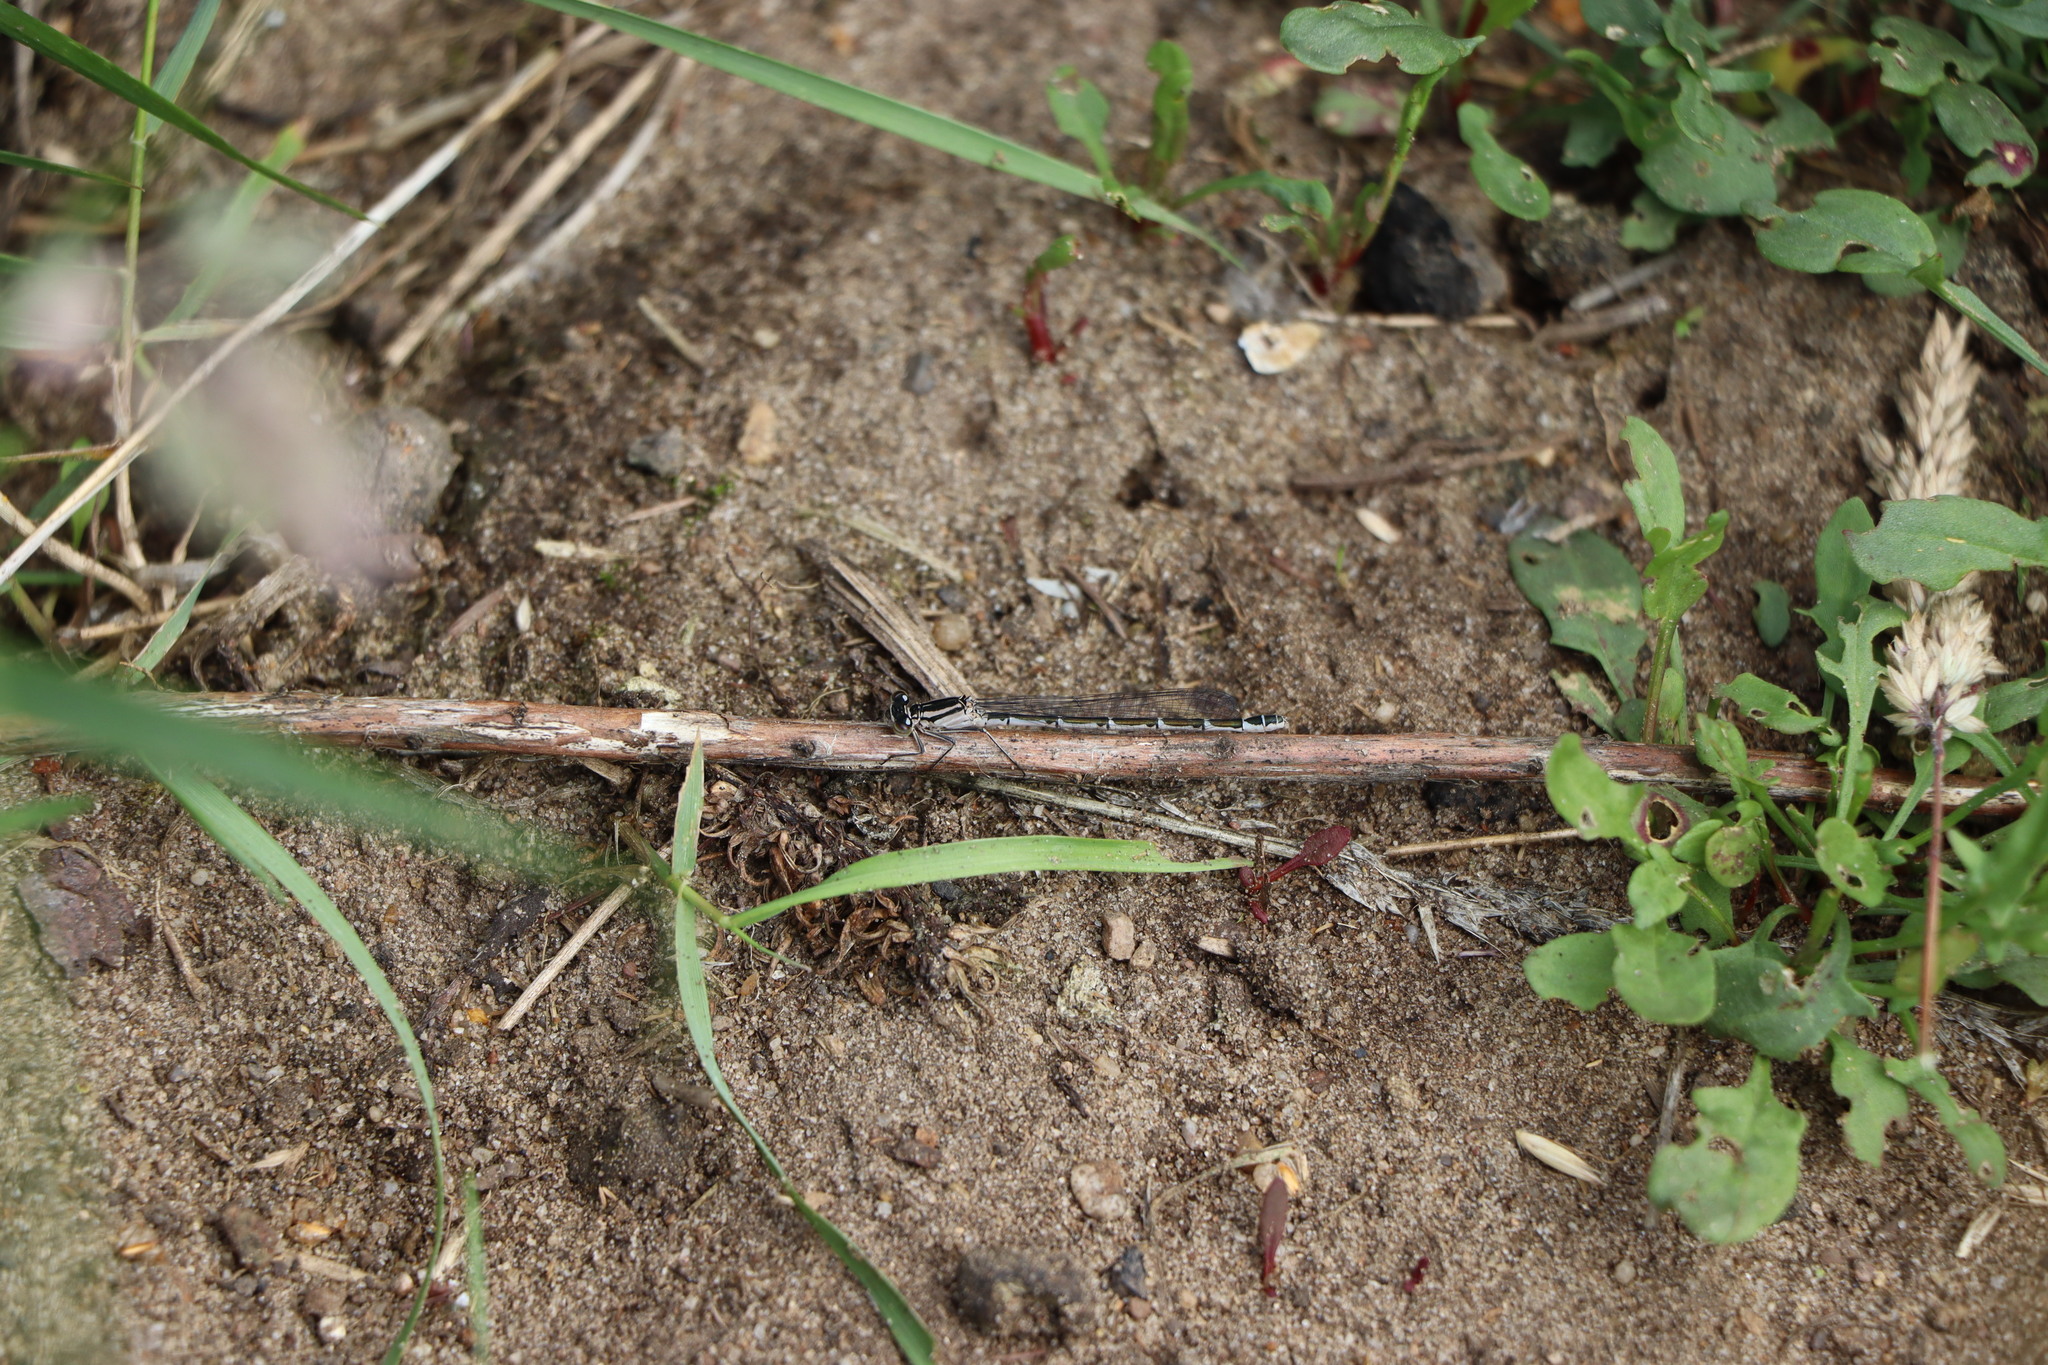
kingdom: Animalia
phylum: Arthropoda
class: Insecta
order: Odonata
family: Coenagrionidae
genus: Enallagma
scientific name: Enallagma cyathigerum
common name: Common blue damselfly
